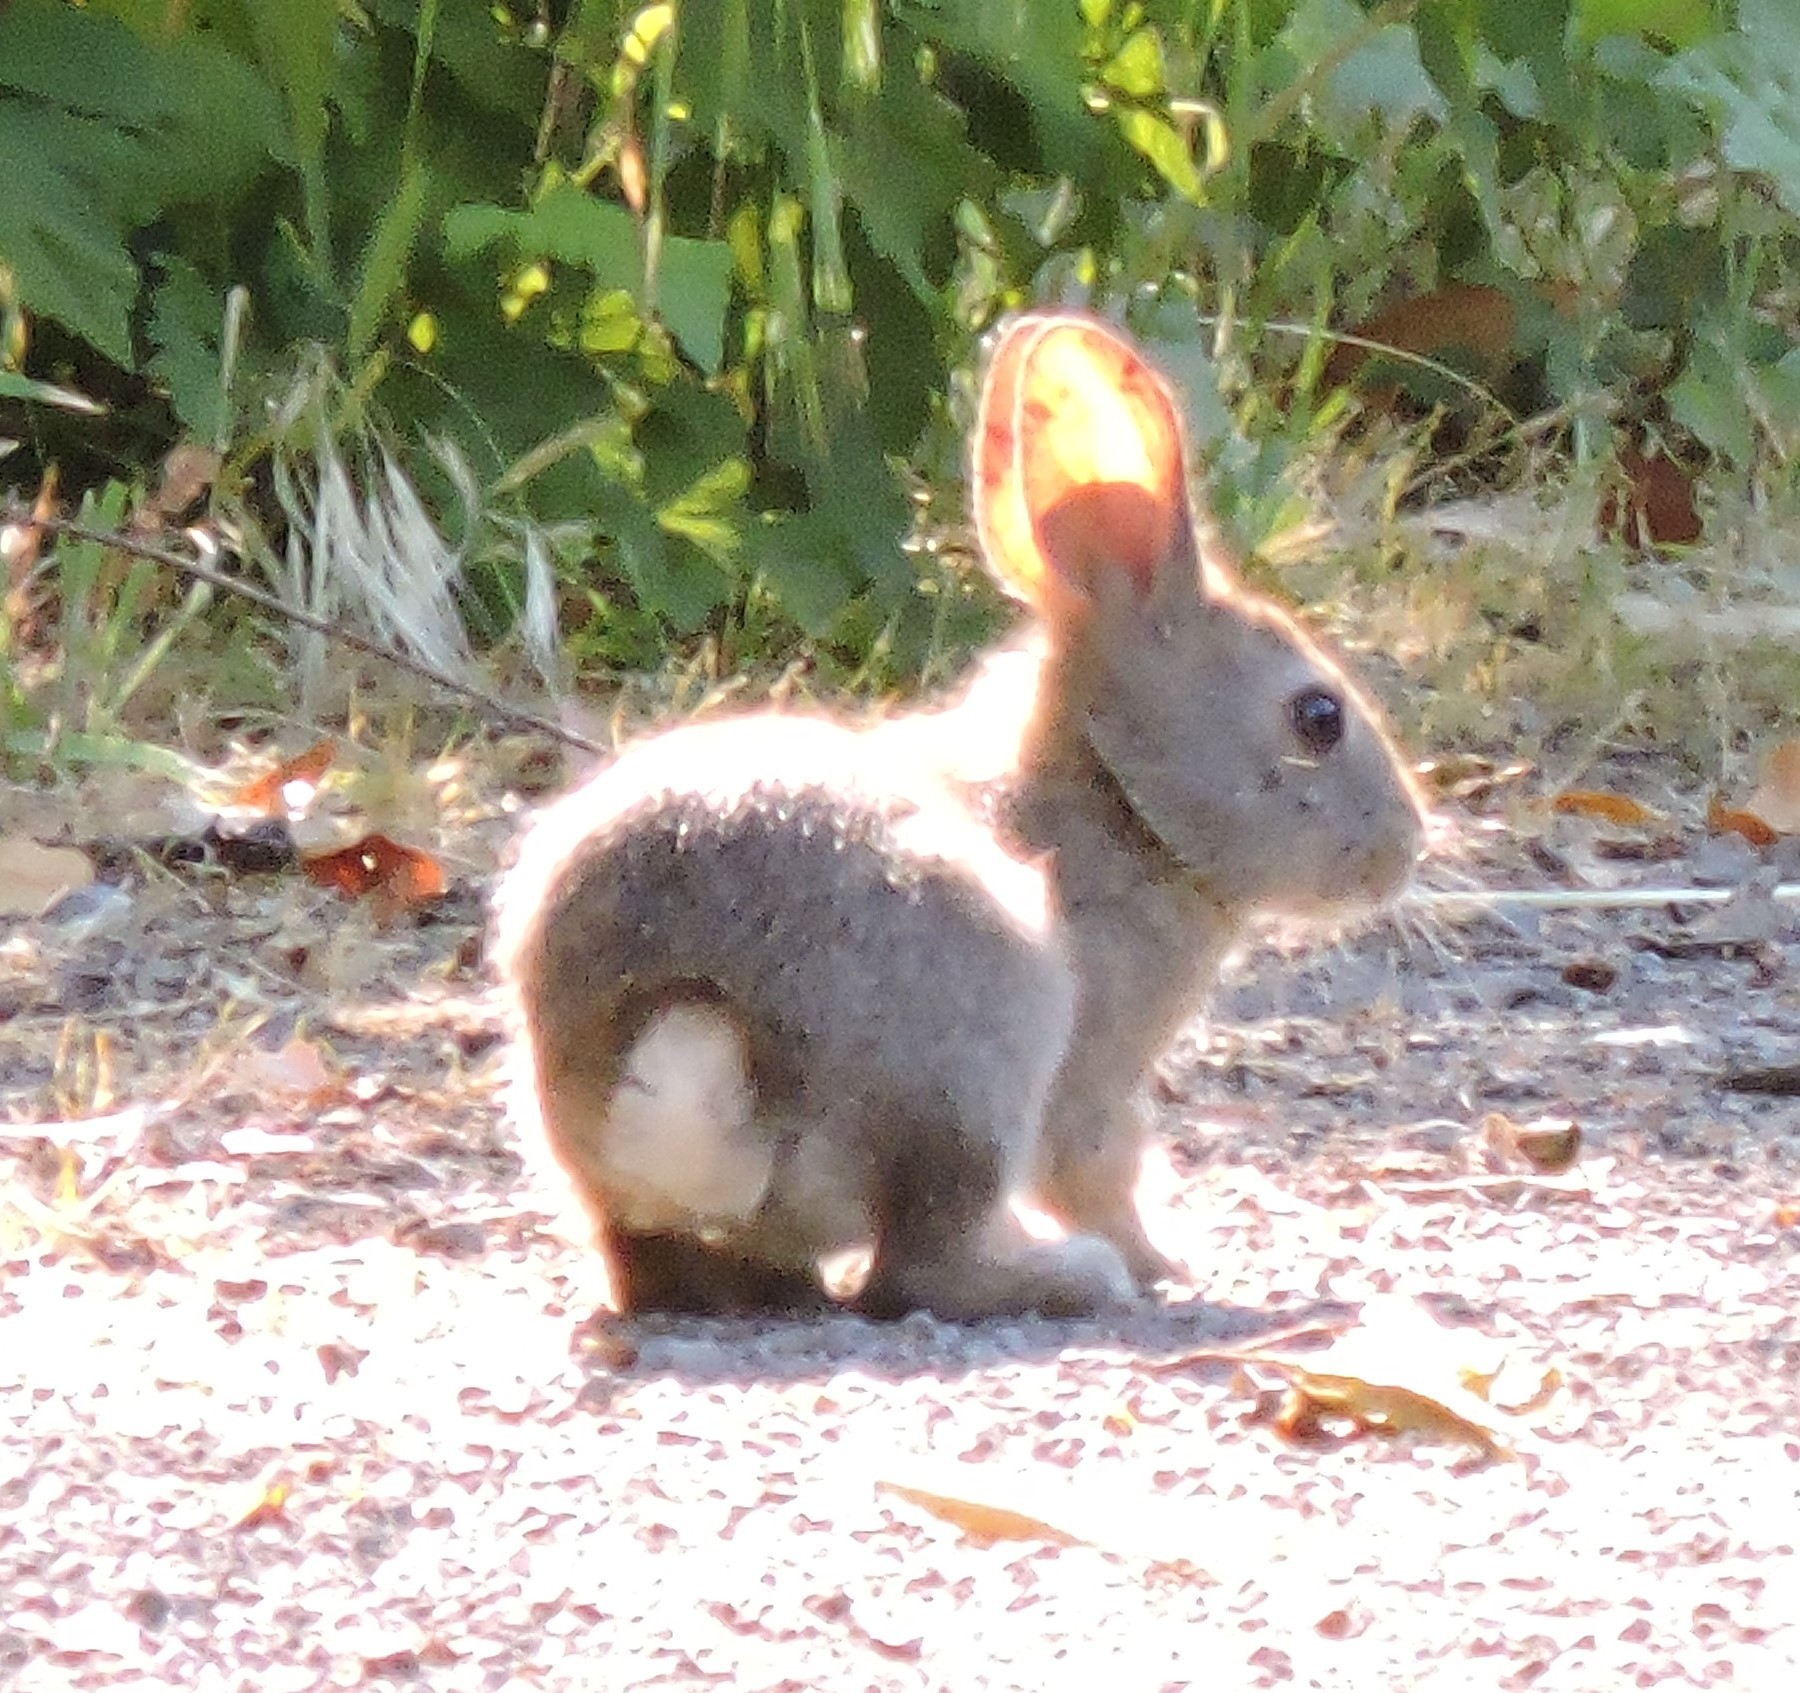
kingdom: Animalia
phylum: Chordata
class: Mammalia
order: Lagomorpha
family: Leporidae
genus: Sylvilagus
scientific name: Sylvilagus bachmani
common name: Brush rabbit
